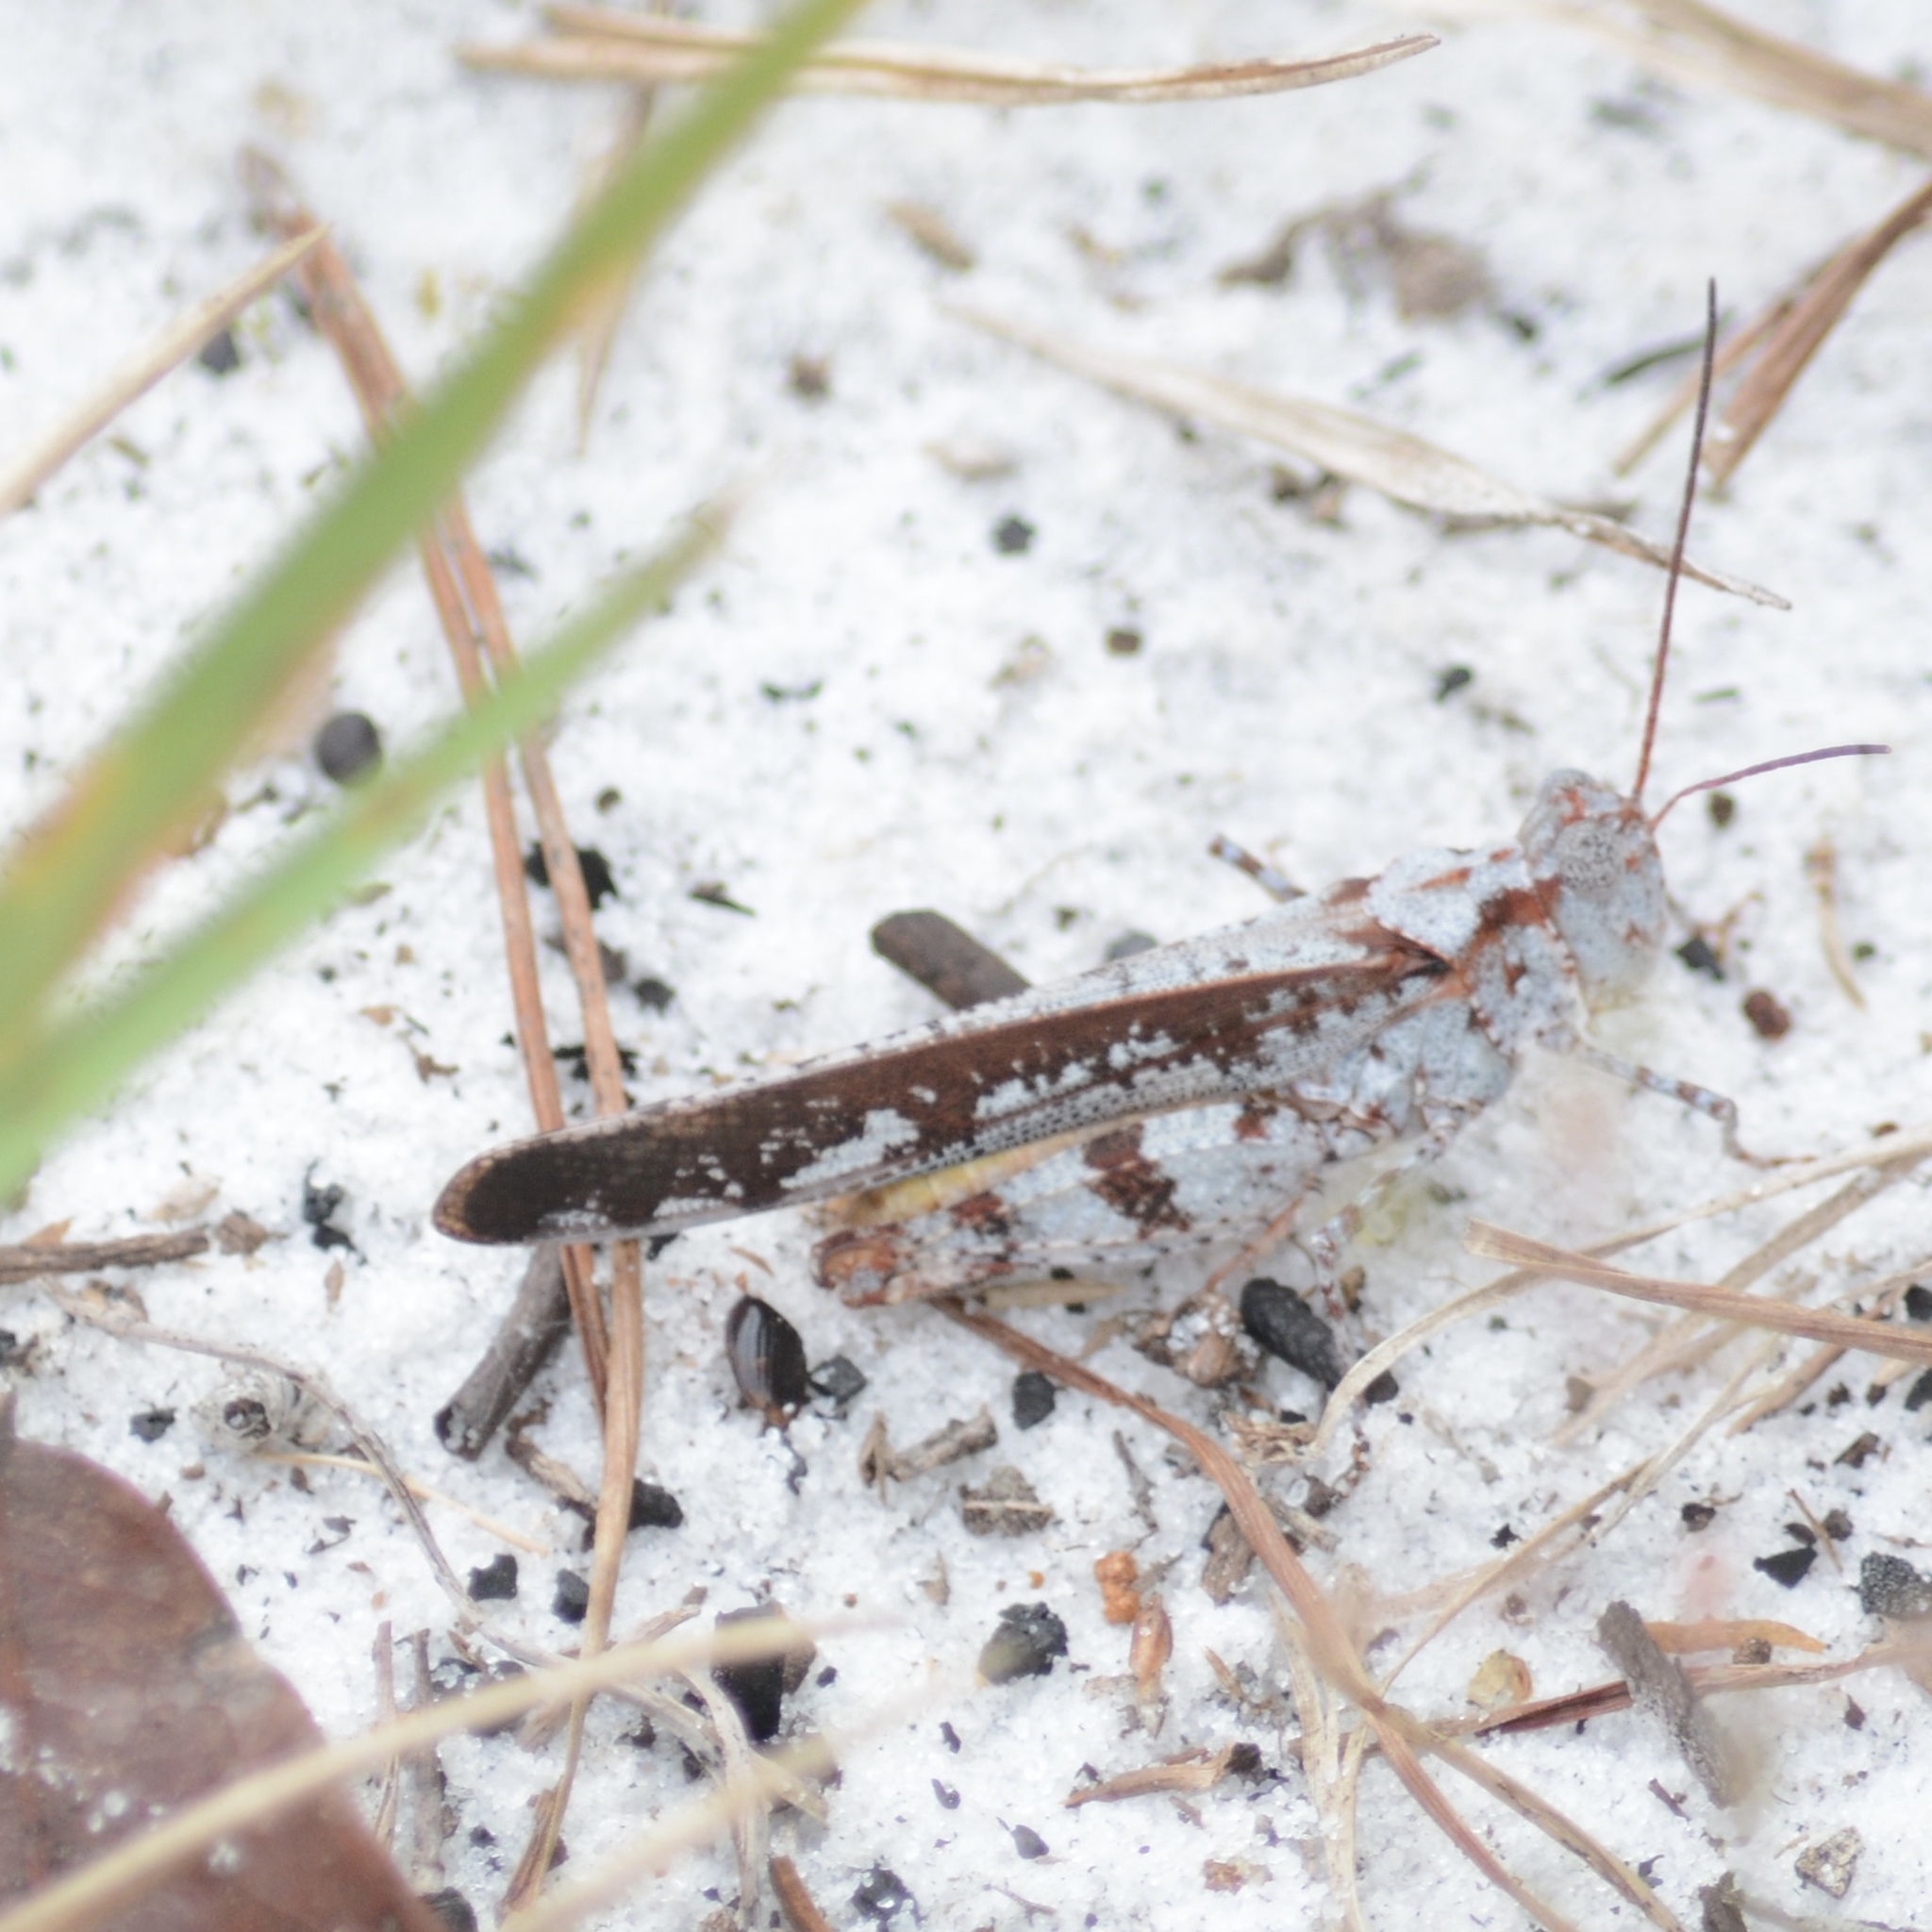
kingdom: Animalia
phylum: Arthropoda
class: Insecta
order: Orthoptera
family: Acrididae
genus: Spharagemon
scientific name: Spharagemon marmoratum
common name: Marbled grasshopper
